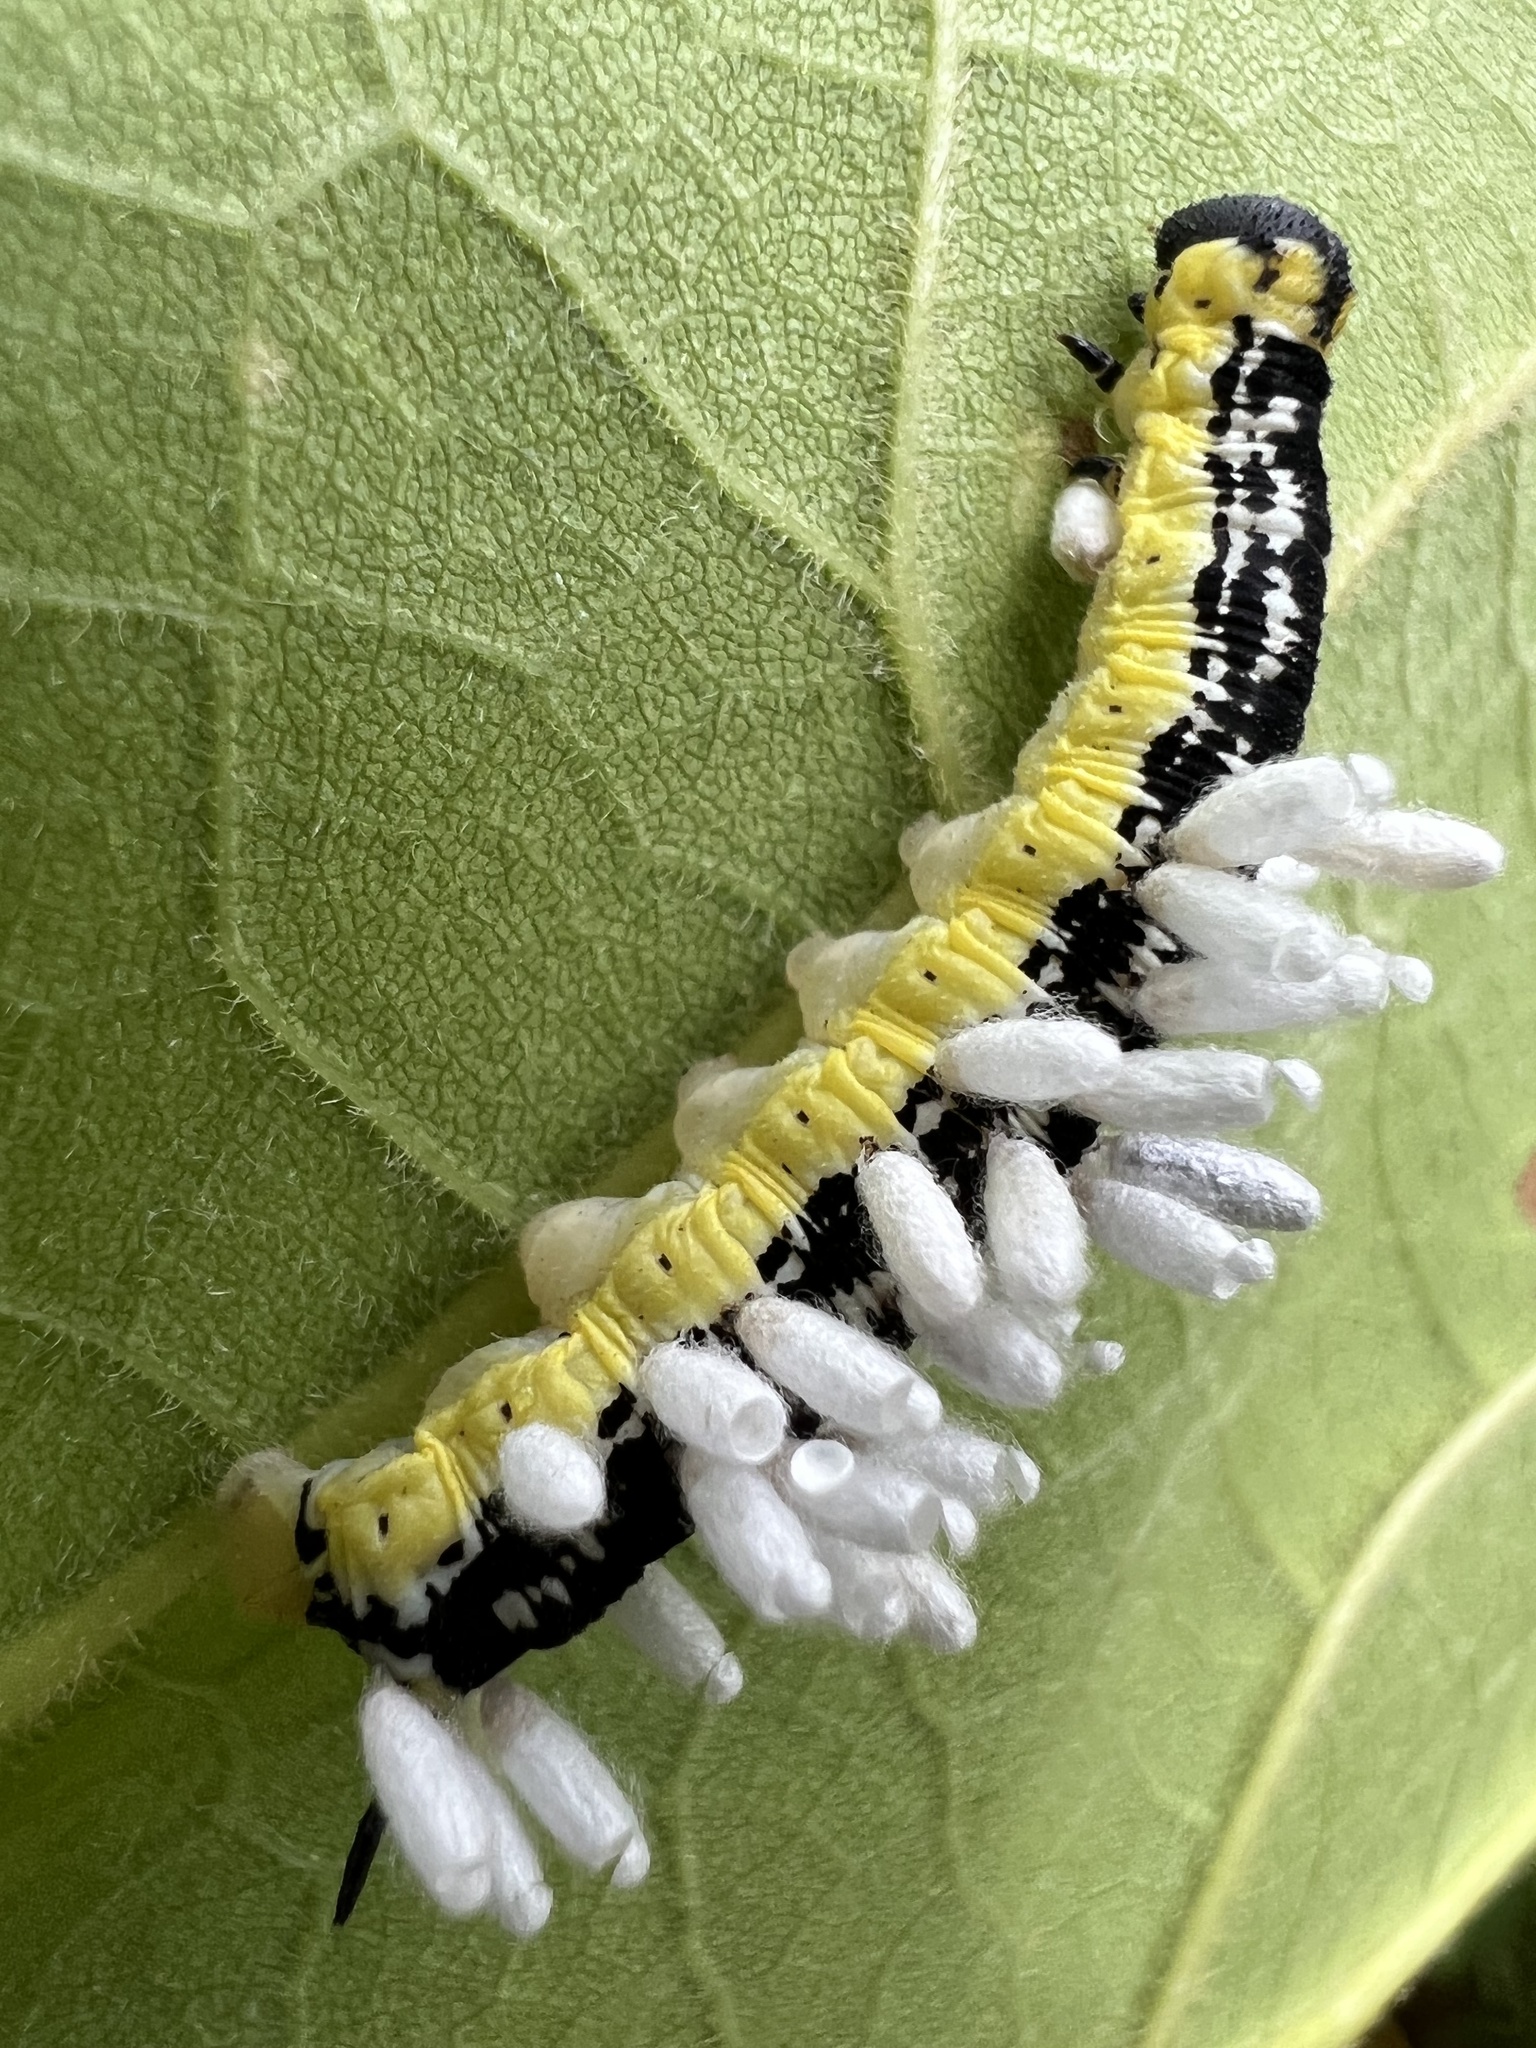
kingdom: Animalia
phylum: Arthropoda
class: Insecta
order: Lepidoptera
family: Sphingidae
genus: Ceratomia
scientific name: Ceratomia catalpae
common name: Catalpa hornworm
